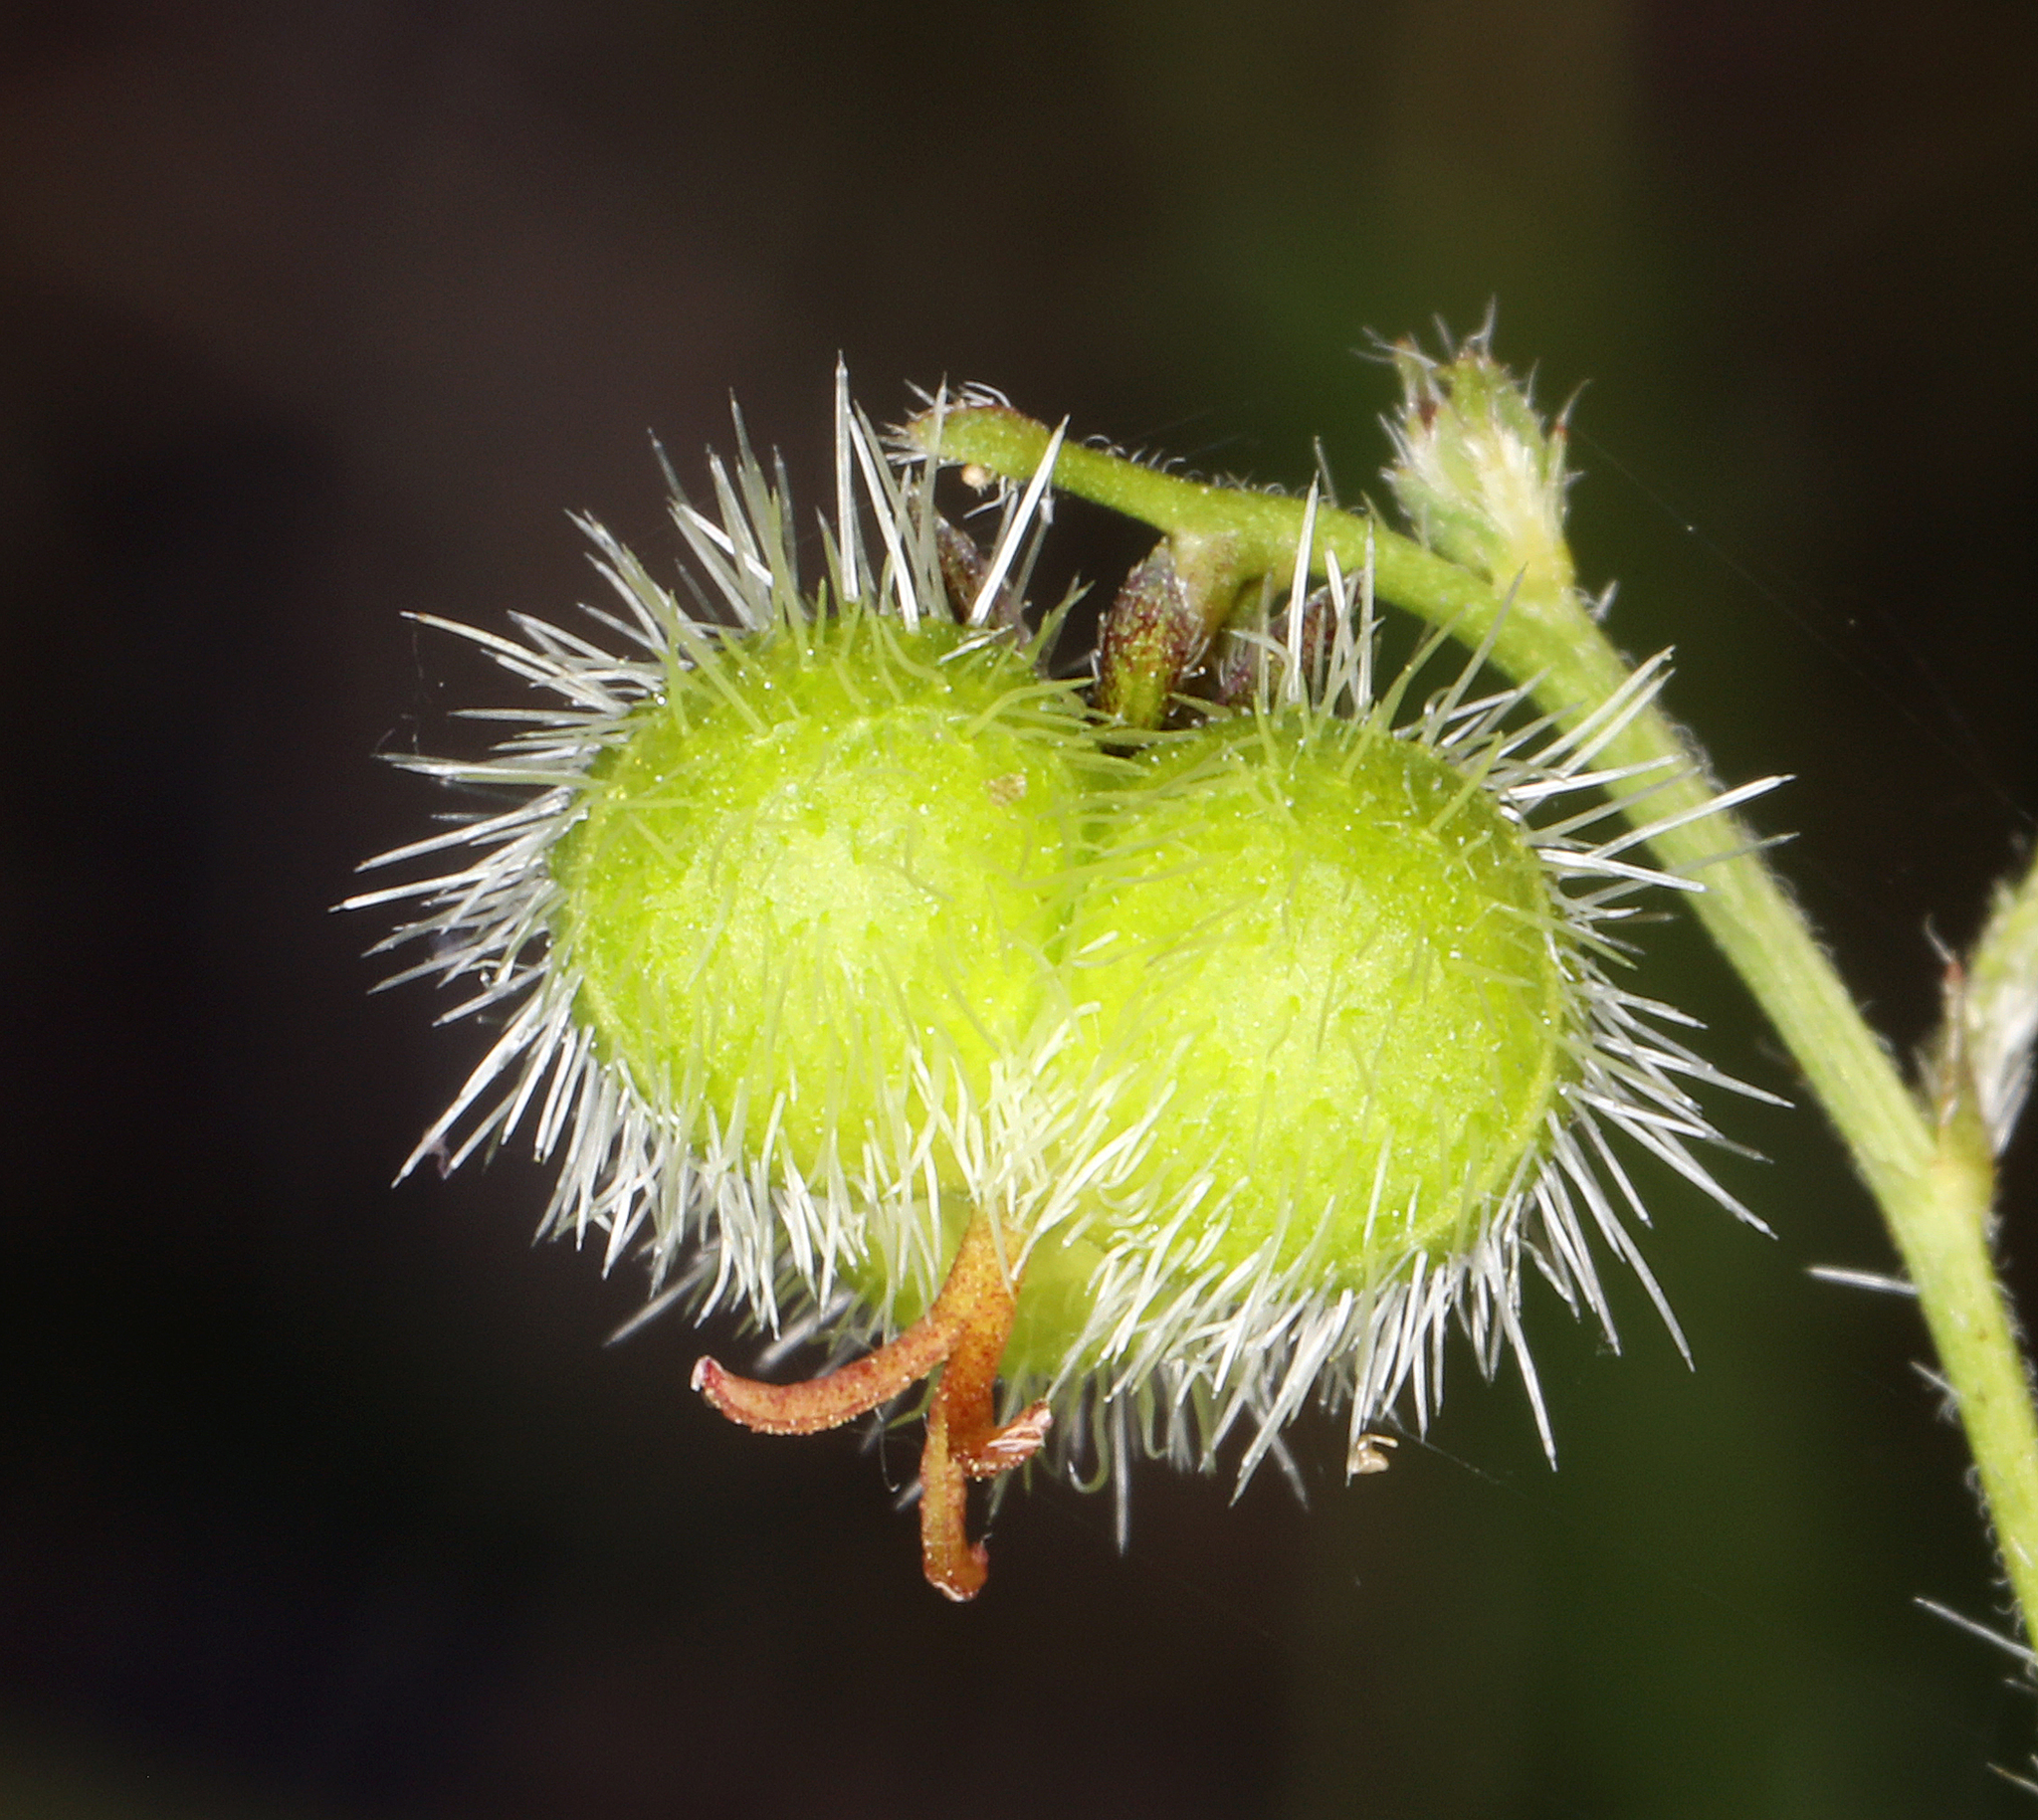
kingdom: Plantae
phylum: Tracheophyta
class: Magnoliopsida
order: Malpighiales
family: Euphorbiaceae
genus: Tragia
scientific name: Tragia ramosa
